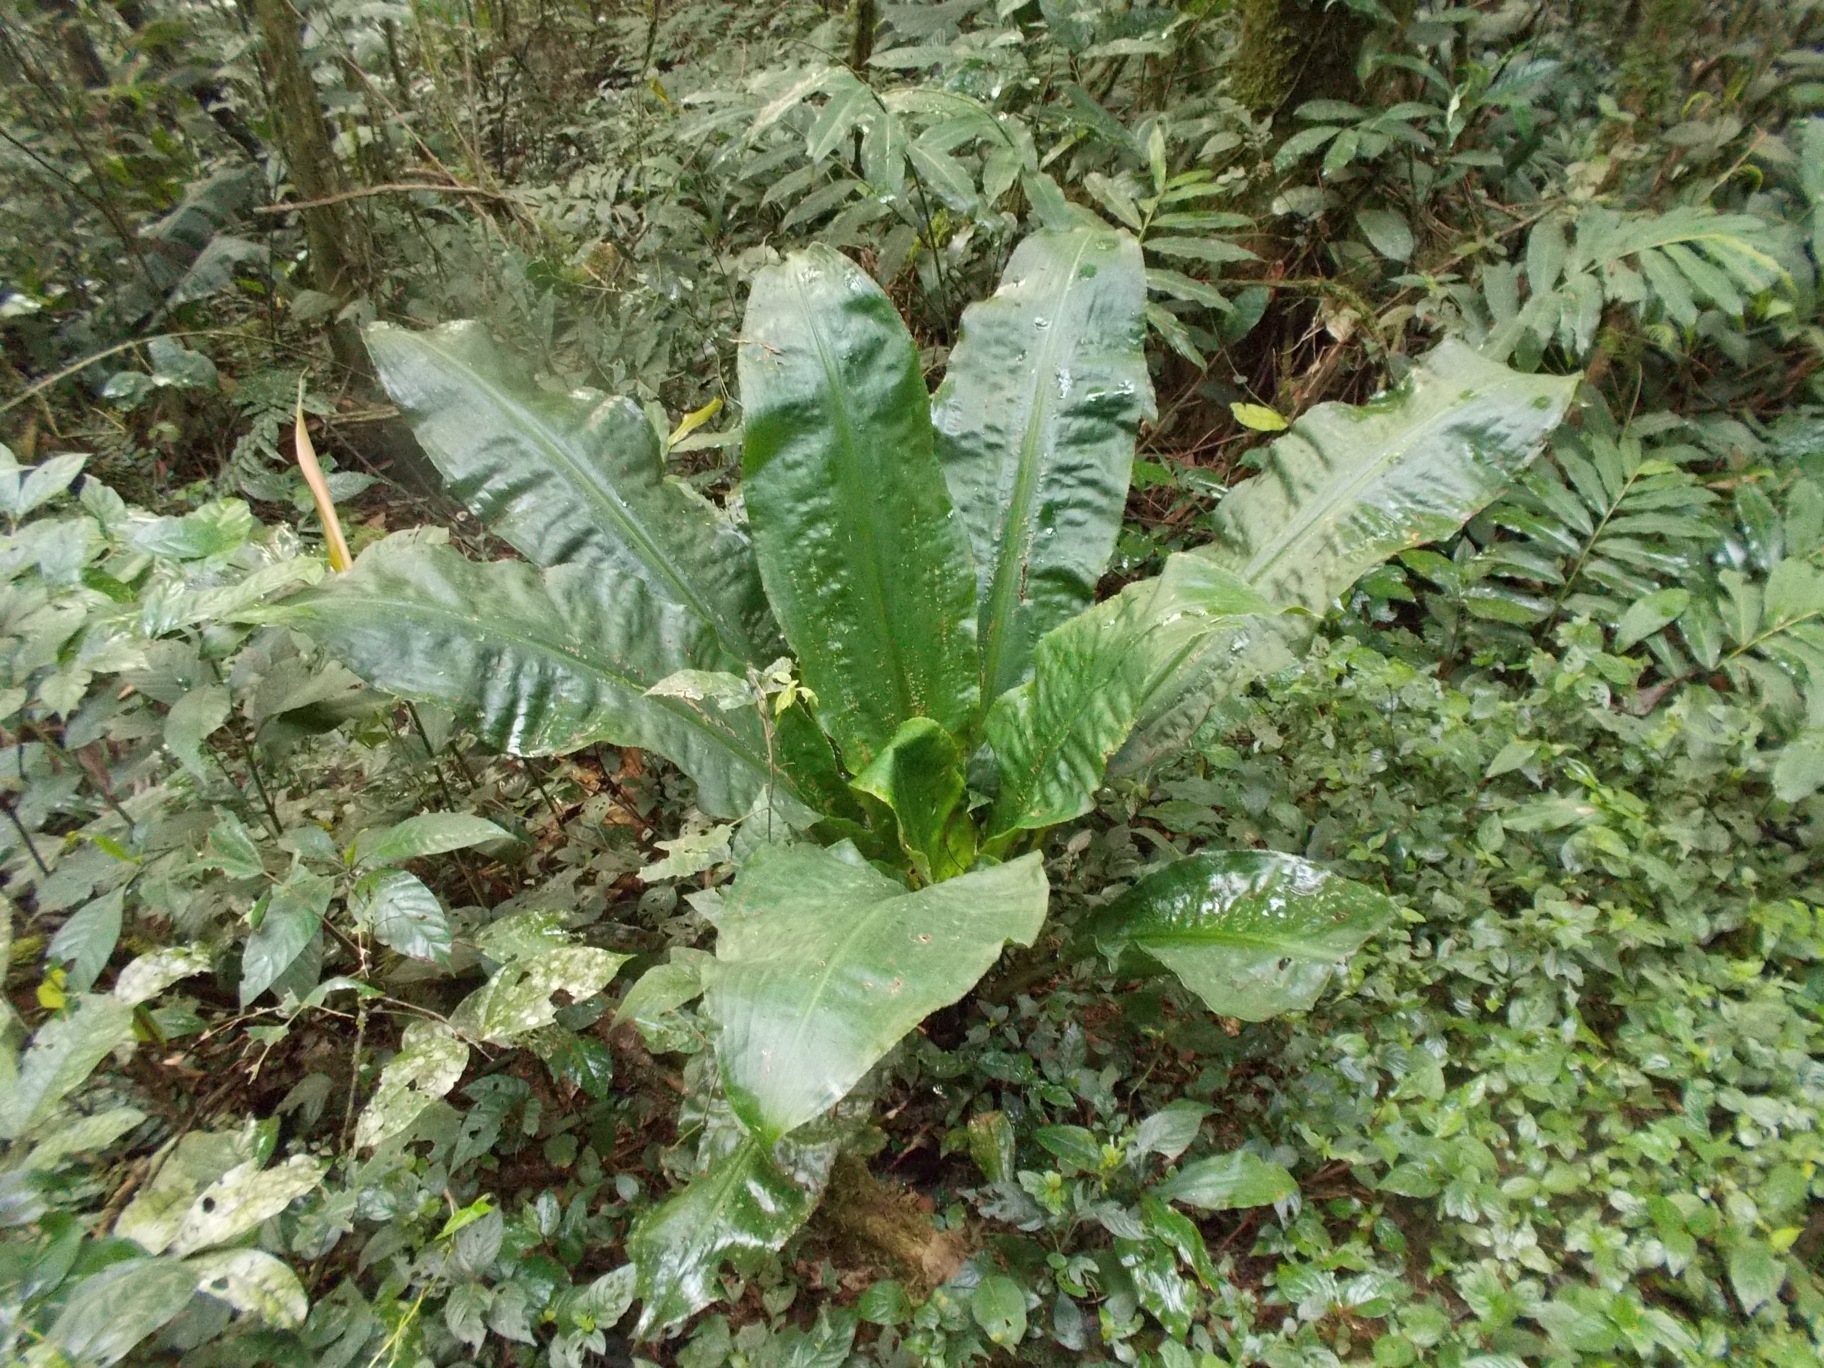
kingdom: Plantae
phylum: Tracheophyta
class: Liliopsida
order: Commelinales
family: Commelinaceae
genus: Palisota
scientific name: Palisota mannii
